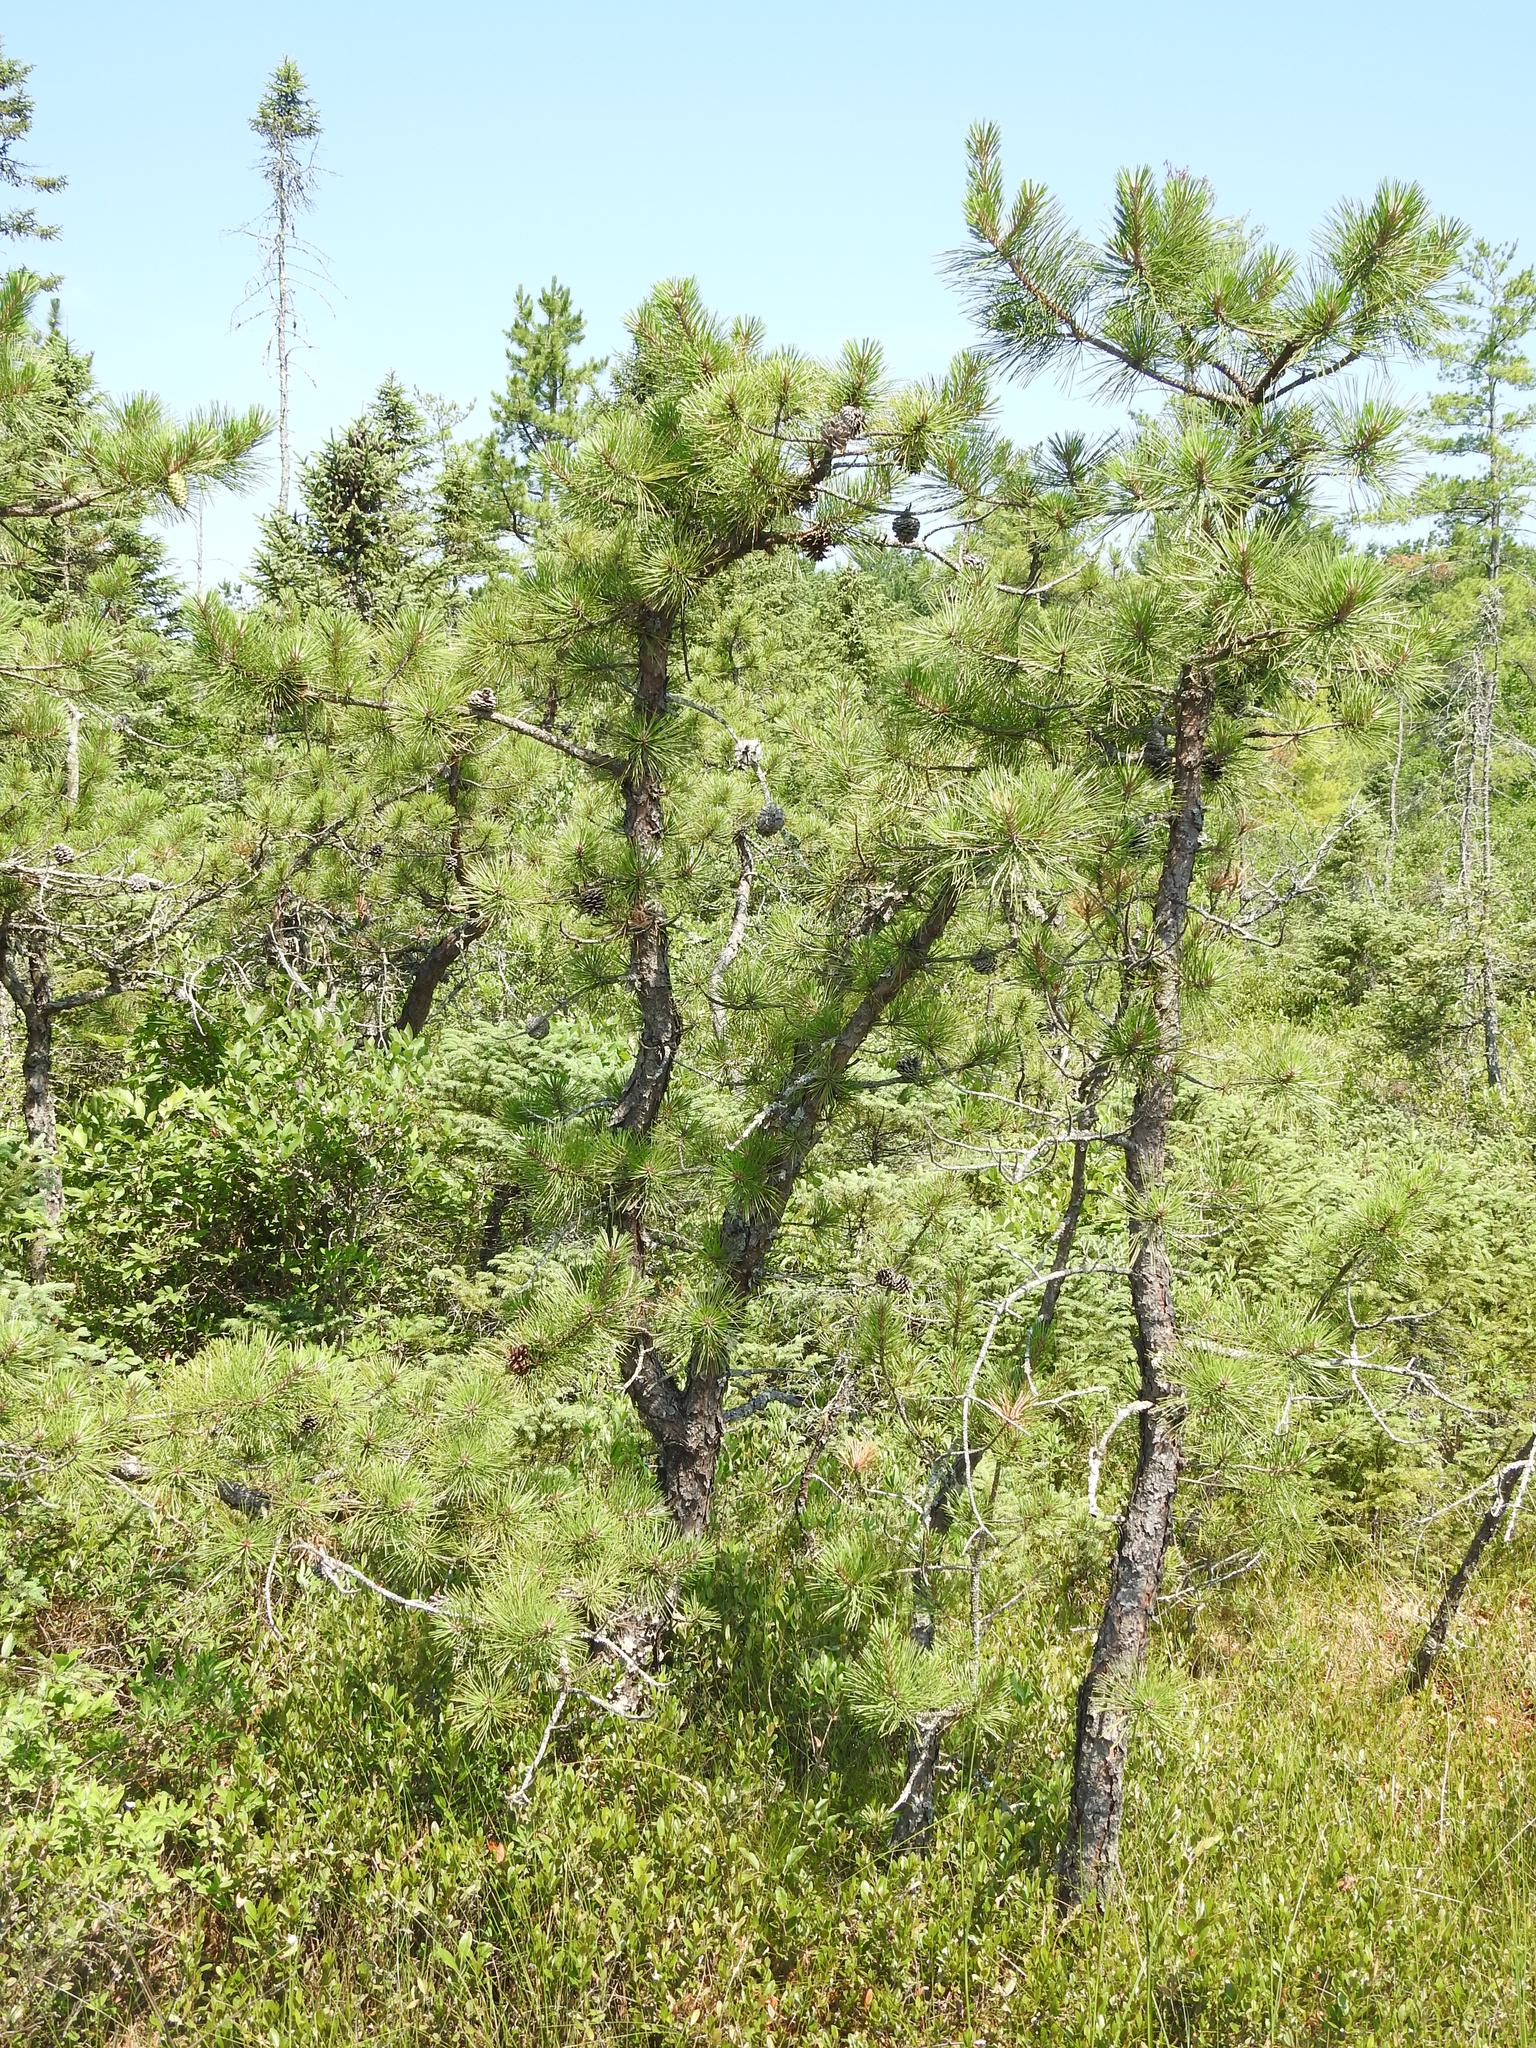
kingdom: Plantae
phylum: Tracheophyta
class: Pinopsida
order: Pinales
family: Pinaceae
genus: Pinus
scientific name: Pinus rigida
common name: Pitch pine
